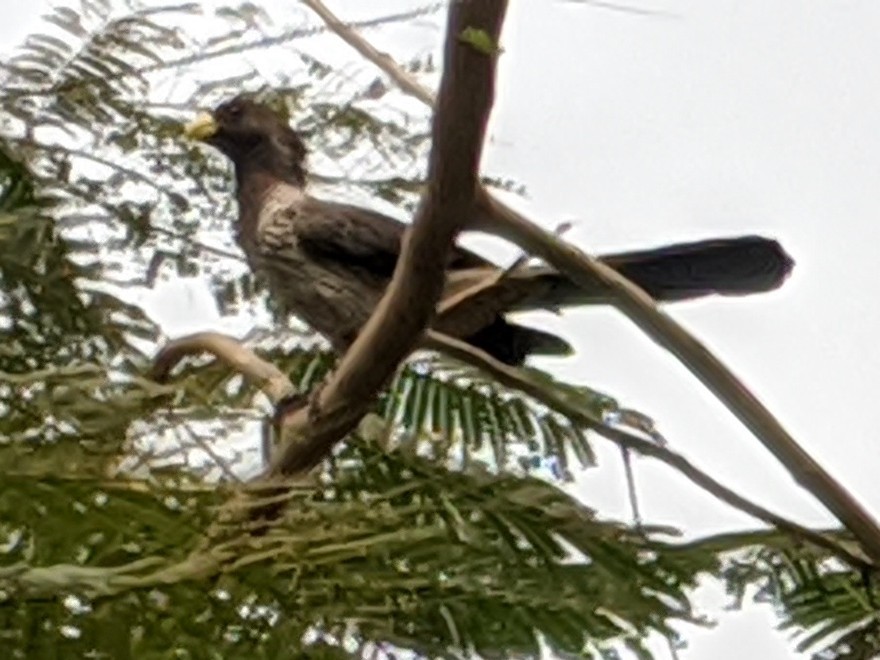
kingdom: Animalia
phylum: Chordata
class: Aves
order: Musophagiformes
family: Musophagidae
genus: Crinifer
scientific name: Crinifer piscator
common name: Western plantain-eater
